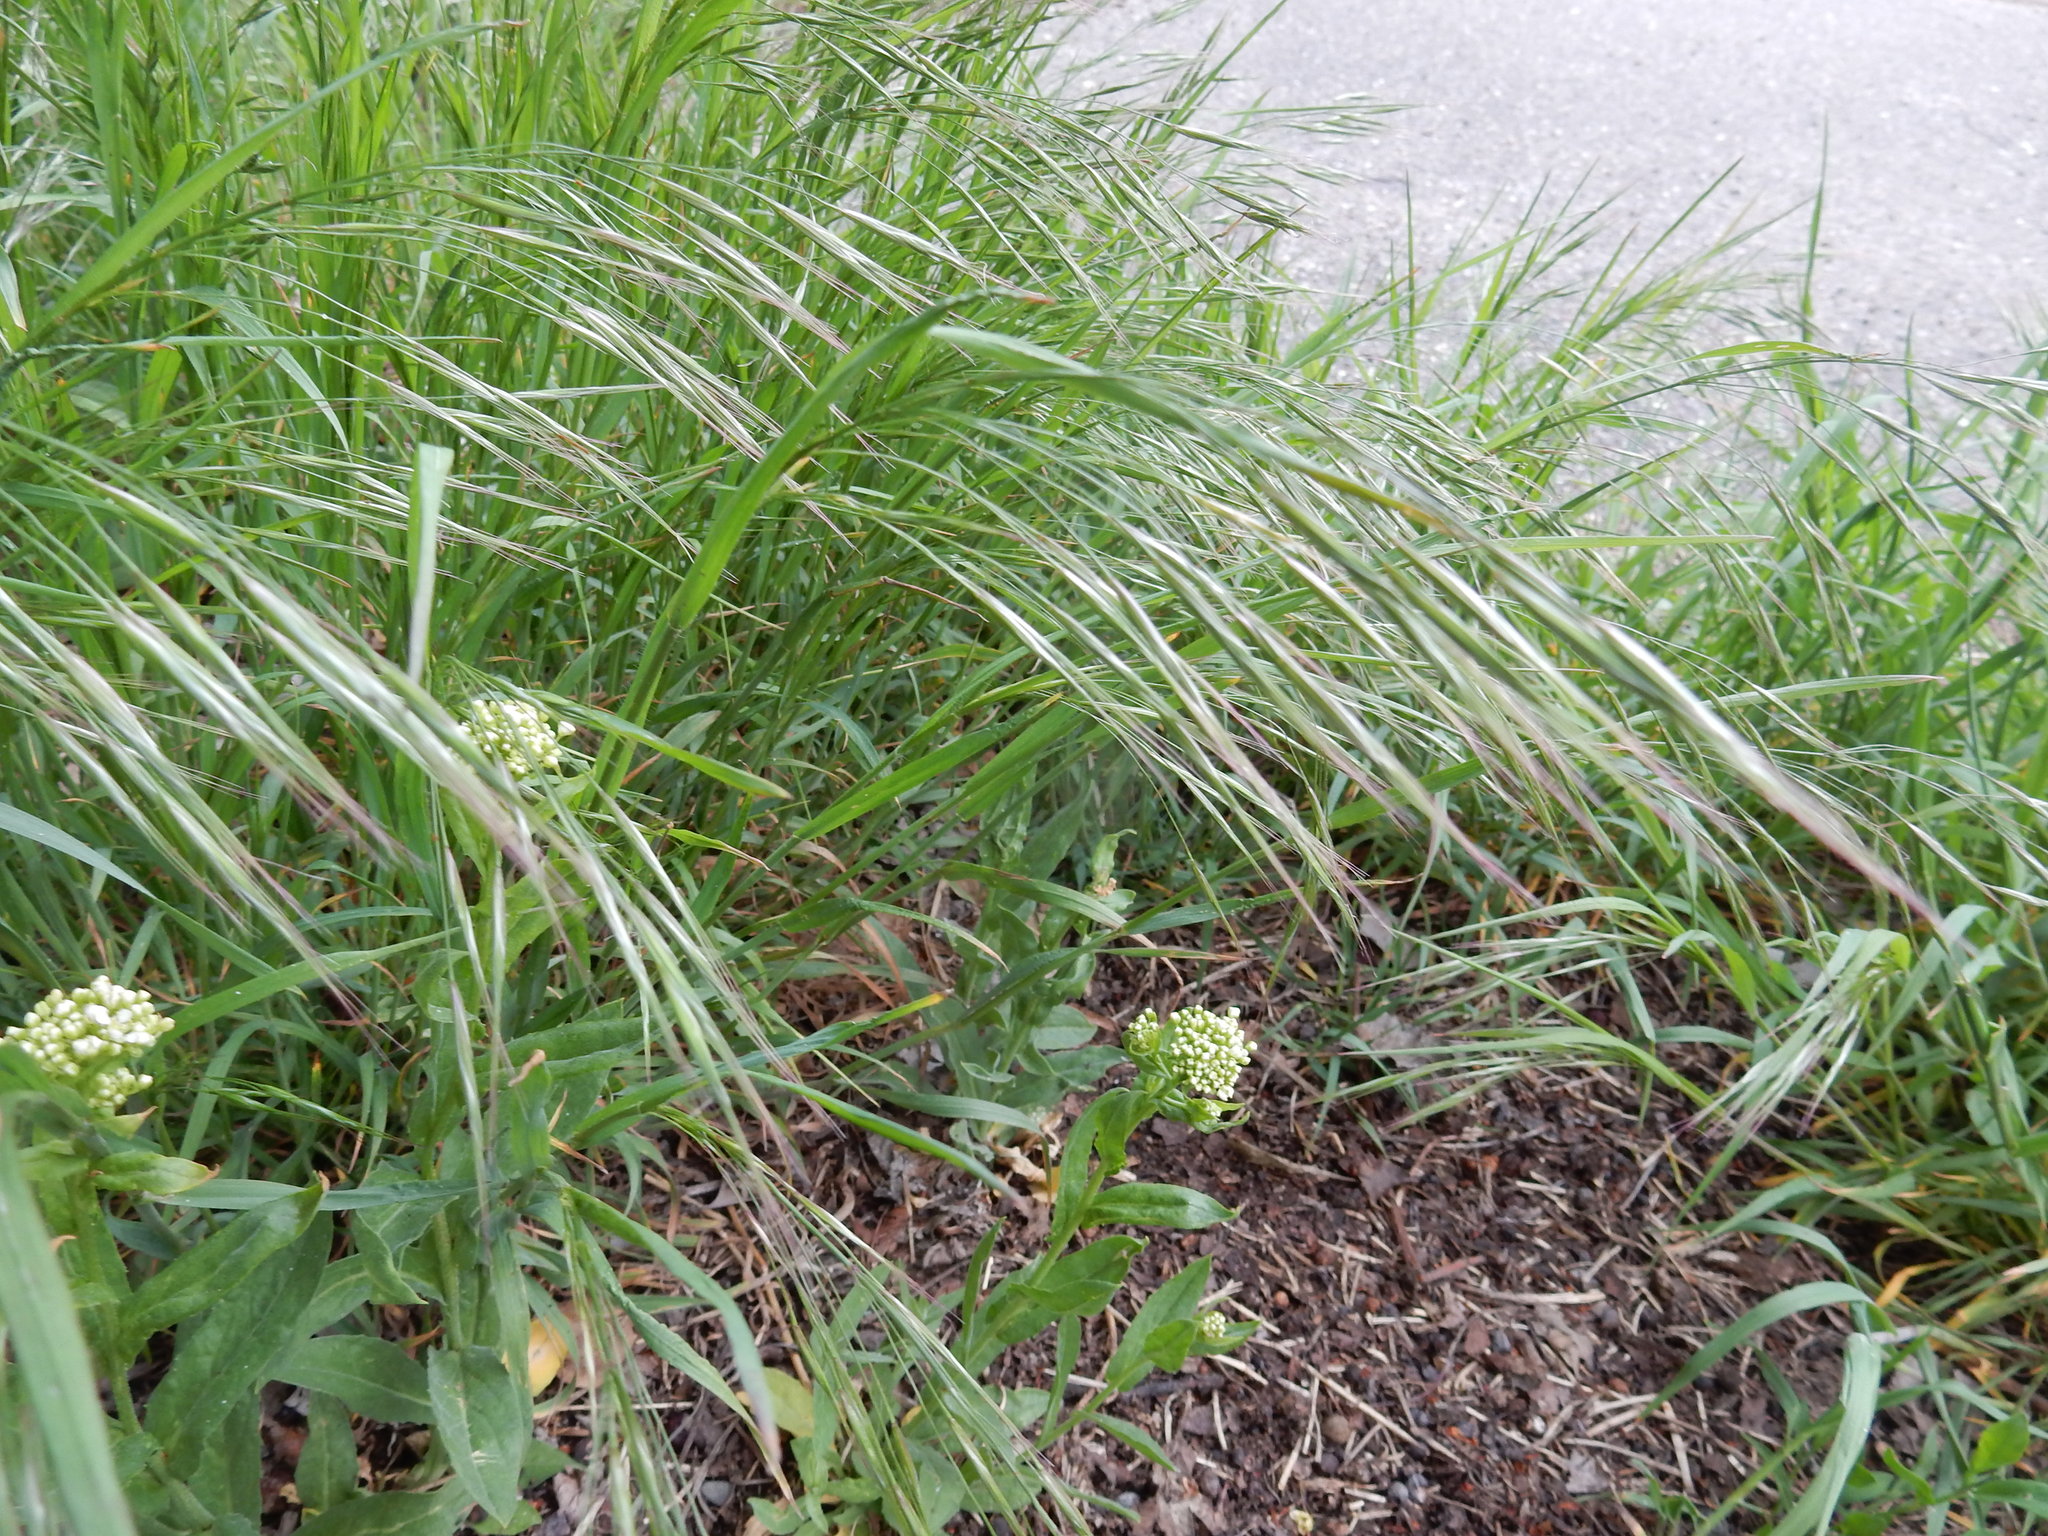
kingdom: Plantae
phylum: Tracheophyta
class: Liliopsida
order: Poales
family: Poaceae
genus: Bromus
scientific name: Bromus sterilis
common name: Poverty brome
